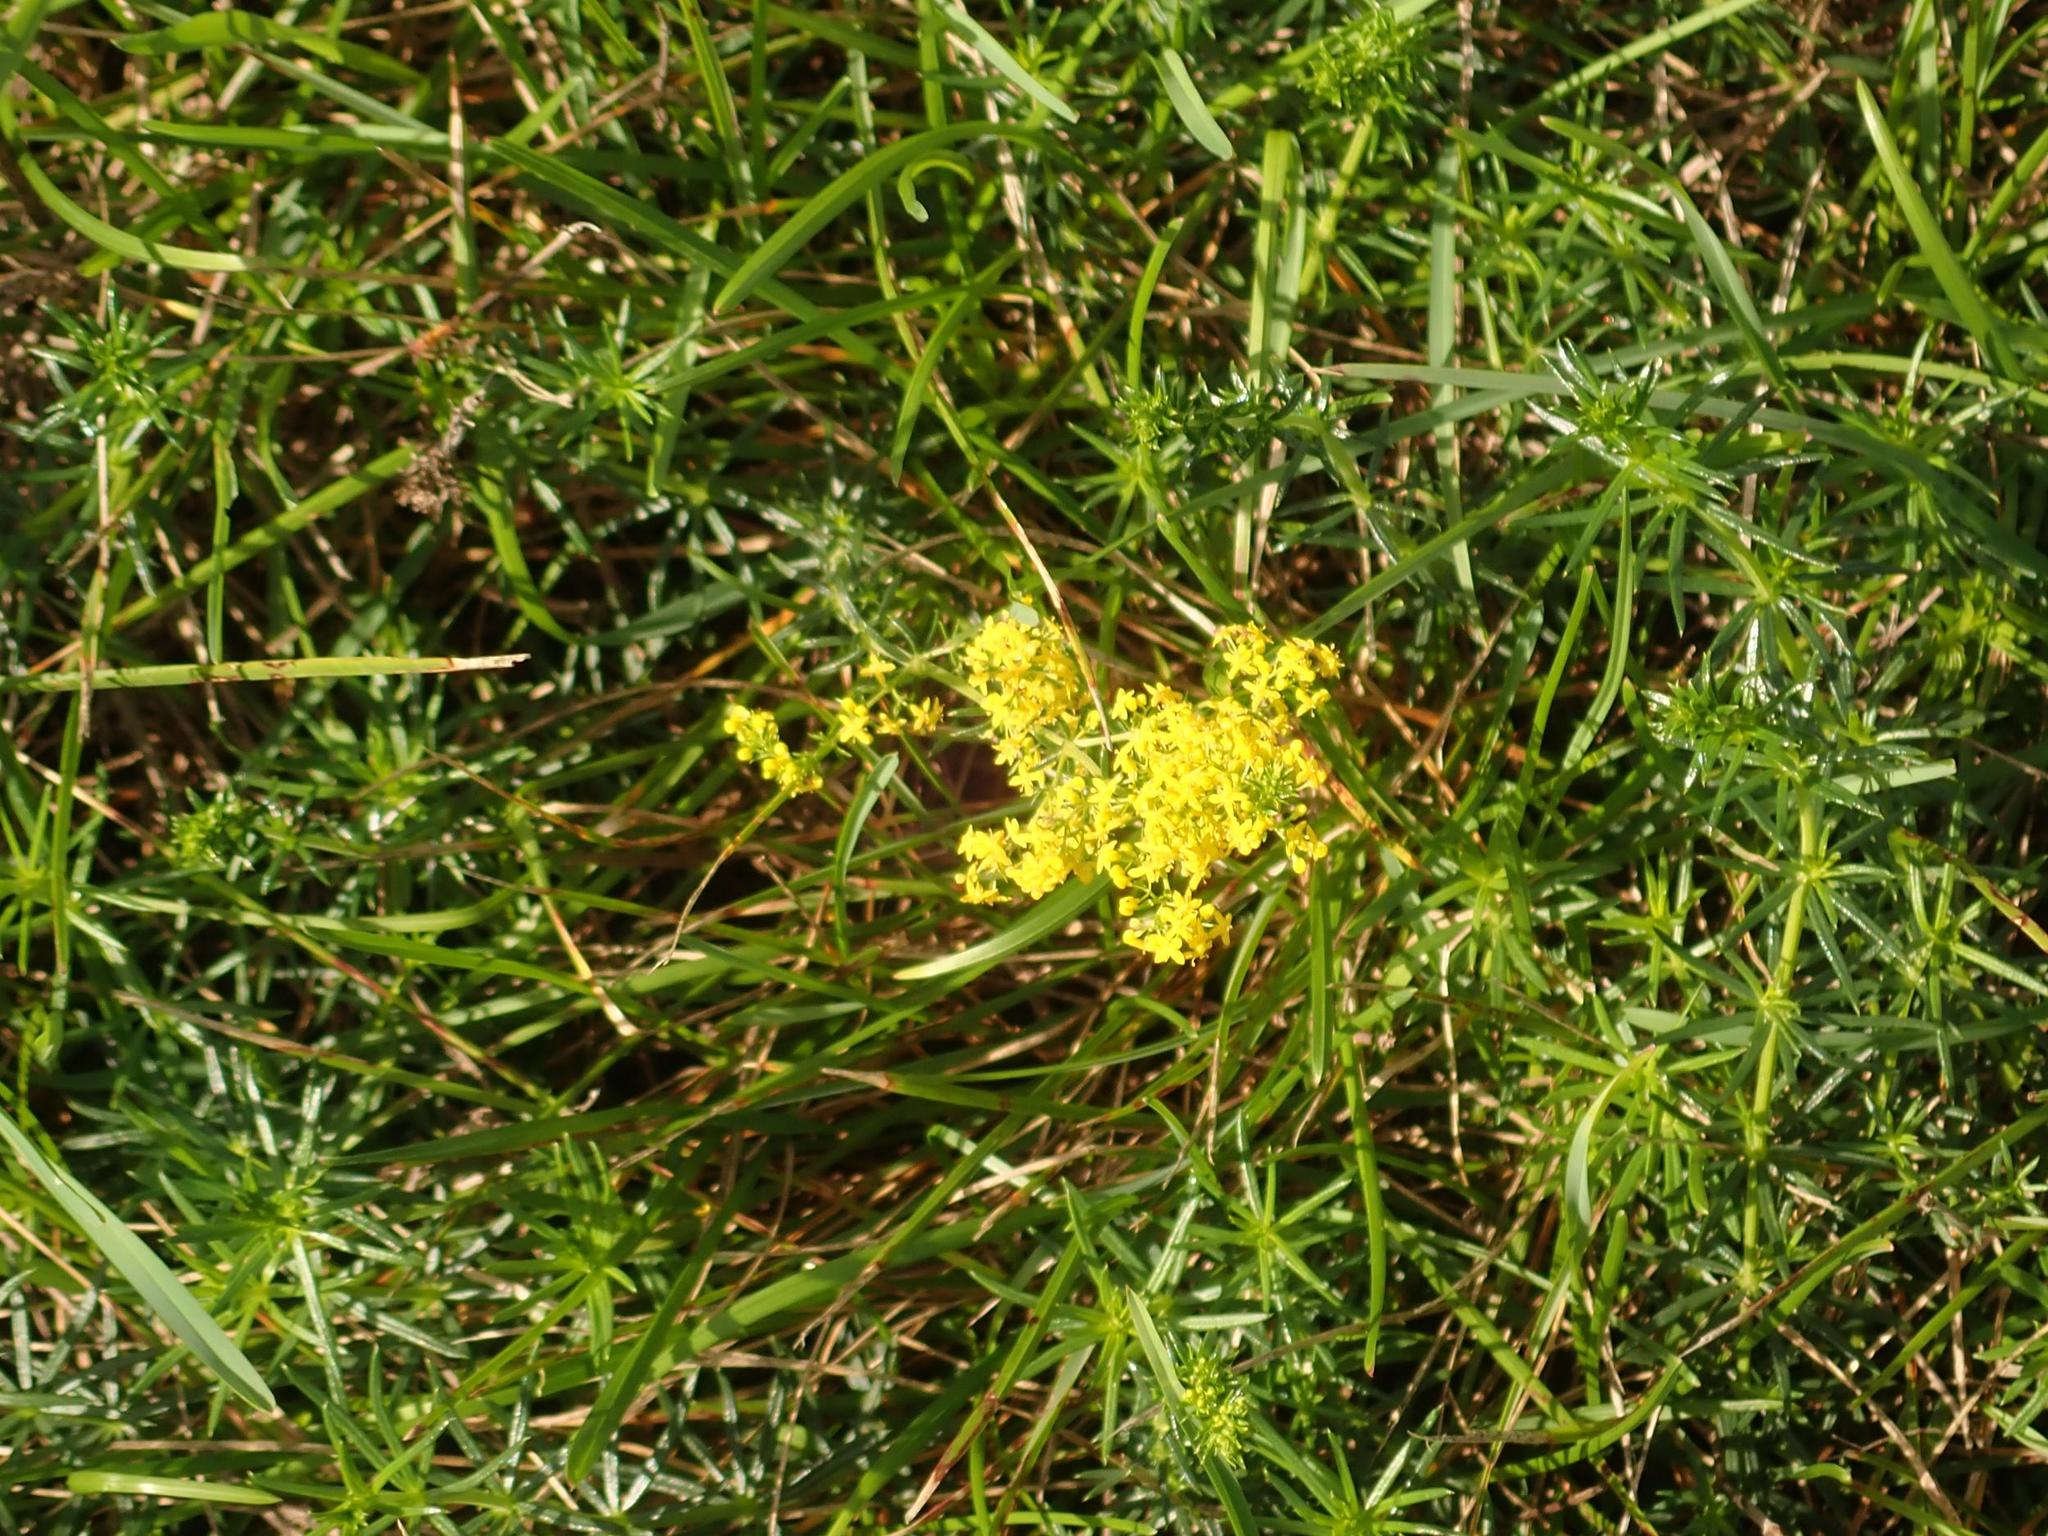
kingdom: Plantae
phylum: Tracheophyta
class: Magnoliopsida
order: Gentianales
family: Rubiaceae
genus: Galium
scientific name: Galium verum
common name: Lady's bedstraw
